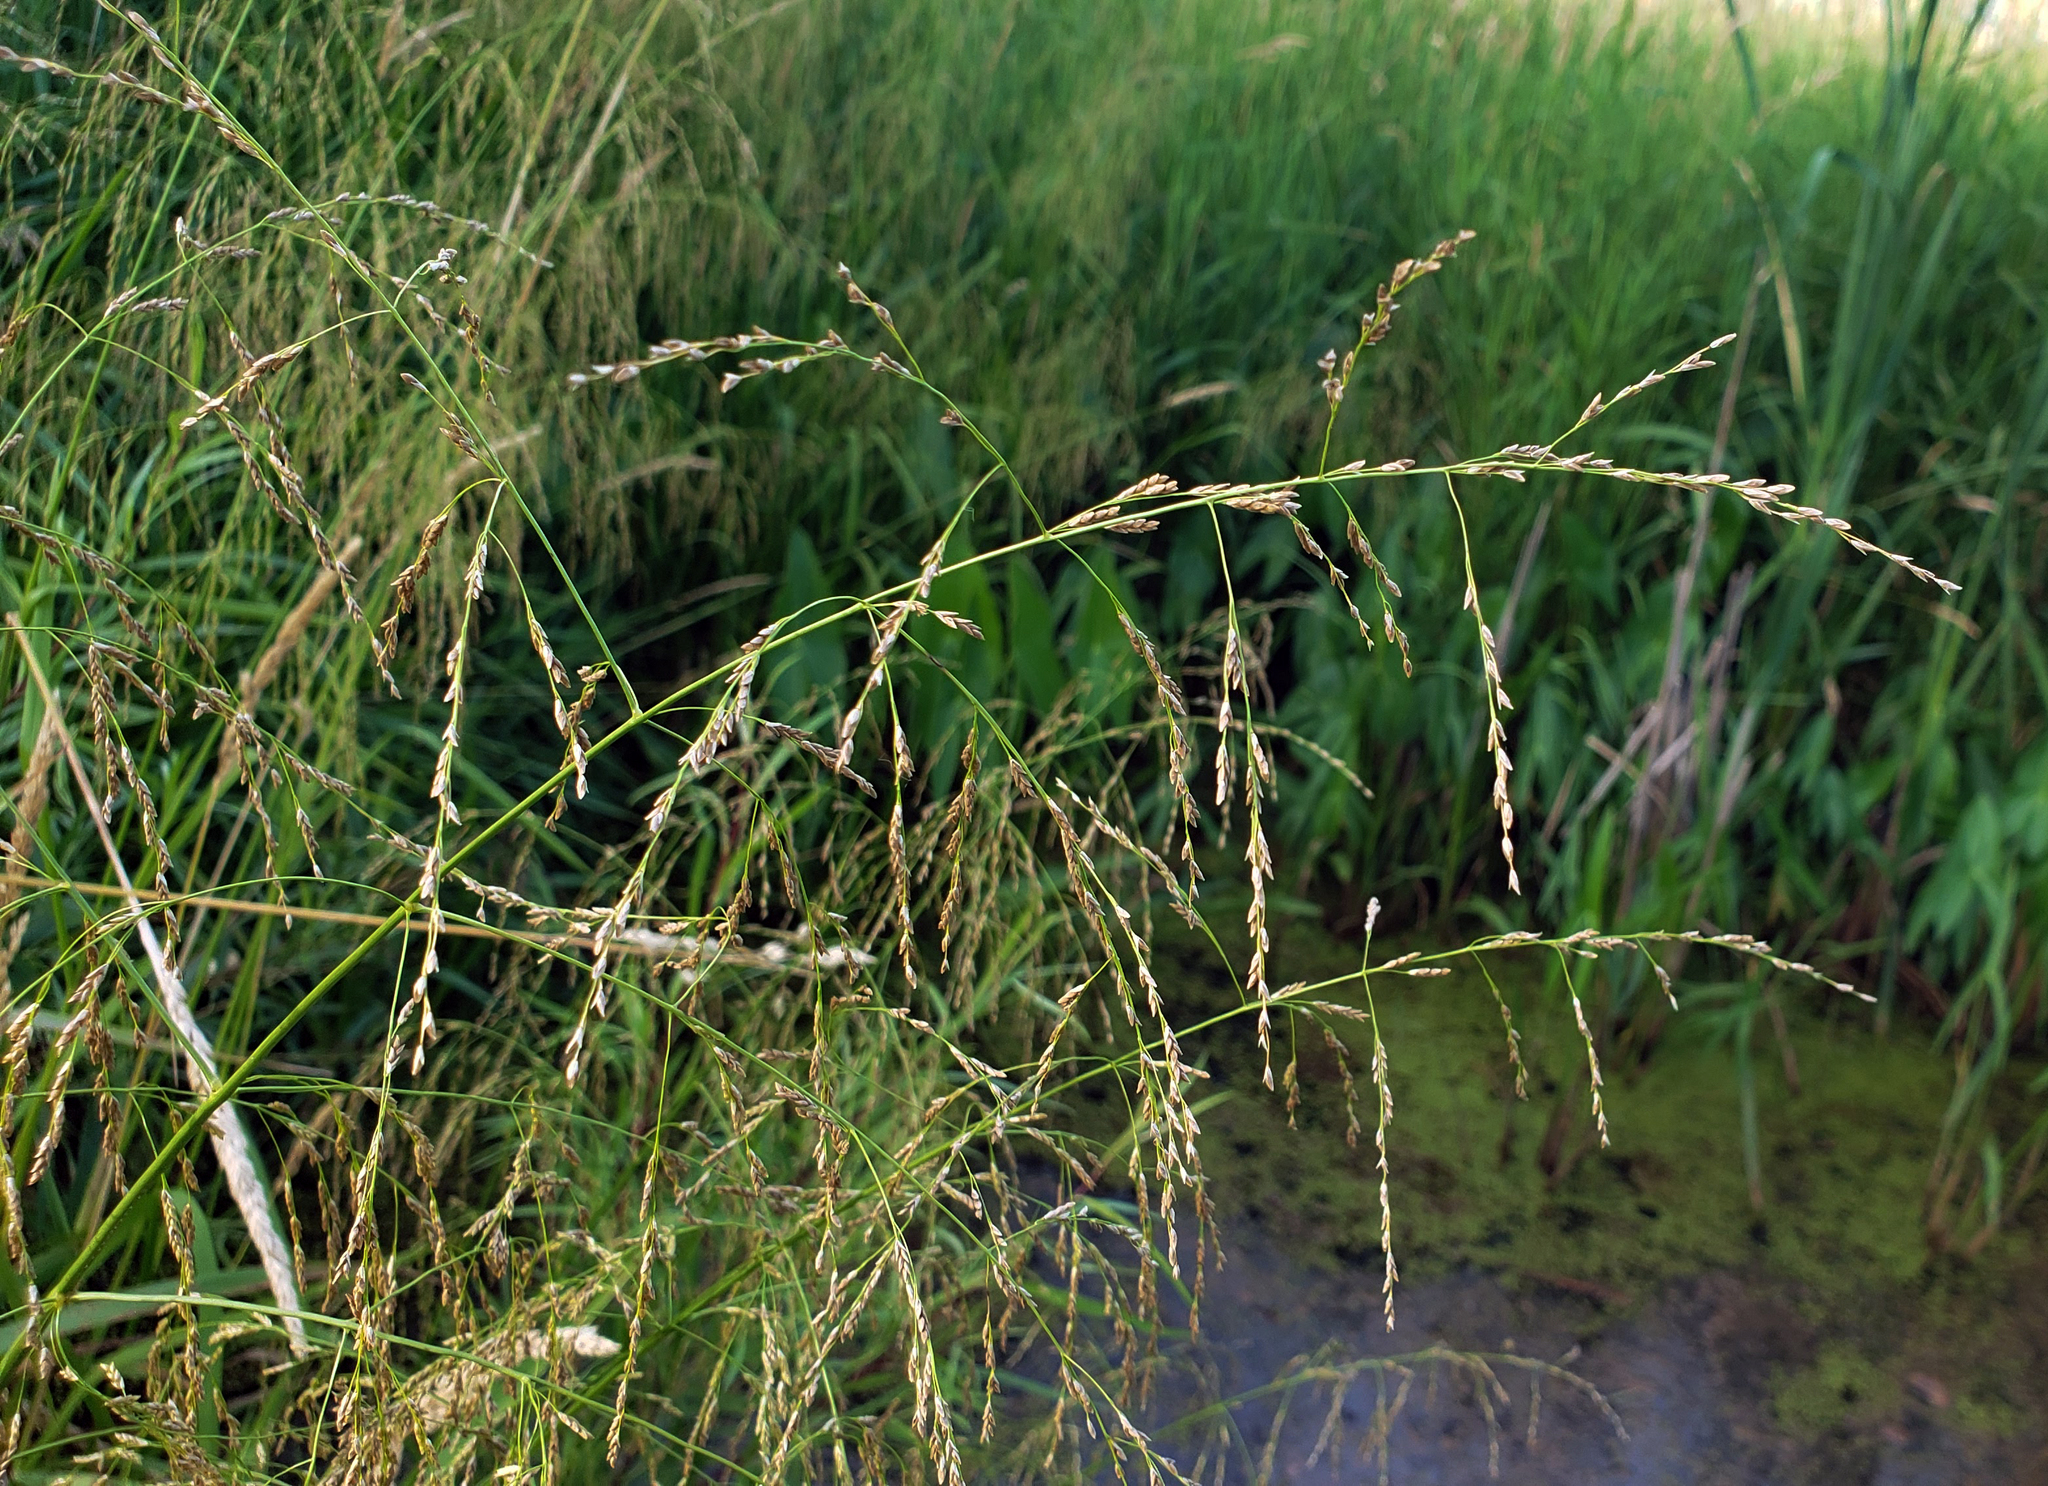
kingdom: Plantae
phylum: Tracheophyta
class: Liliopsida
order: Poales
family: Poaceae
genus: Glyceria
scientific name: Glyceria grandis
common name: American glyceria
